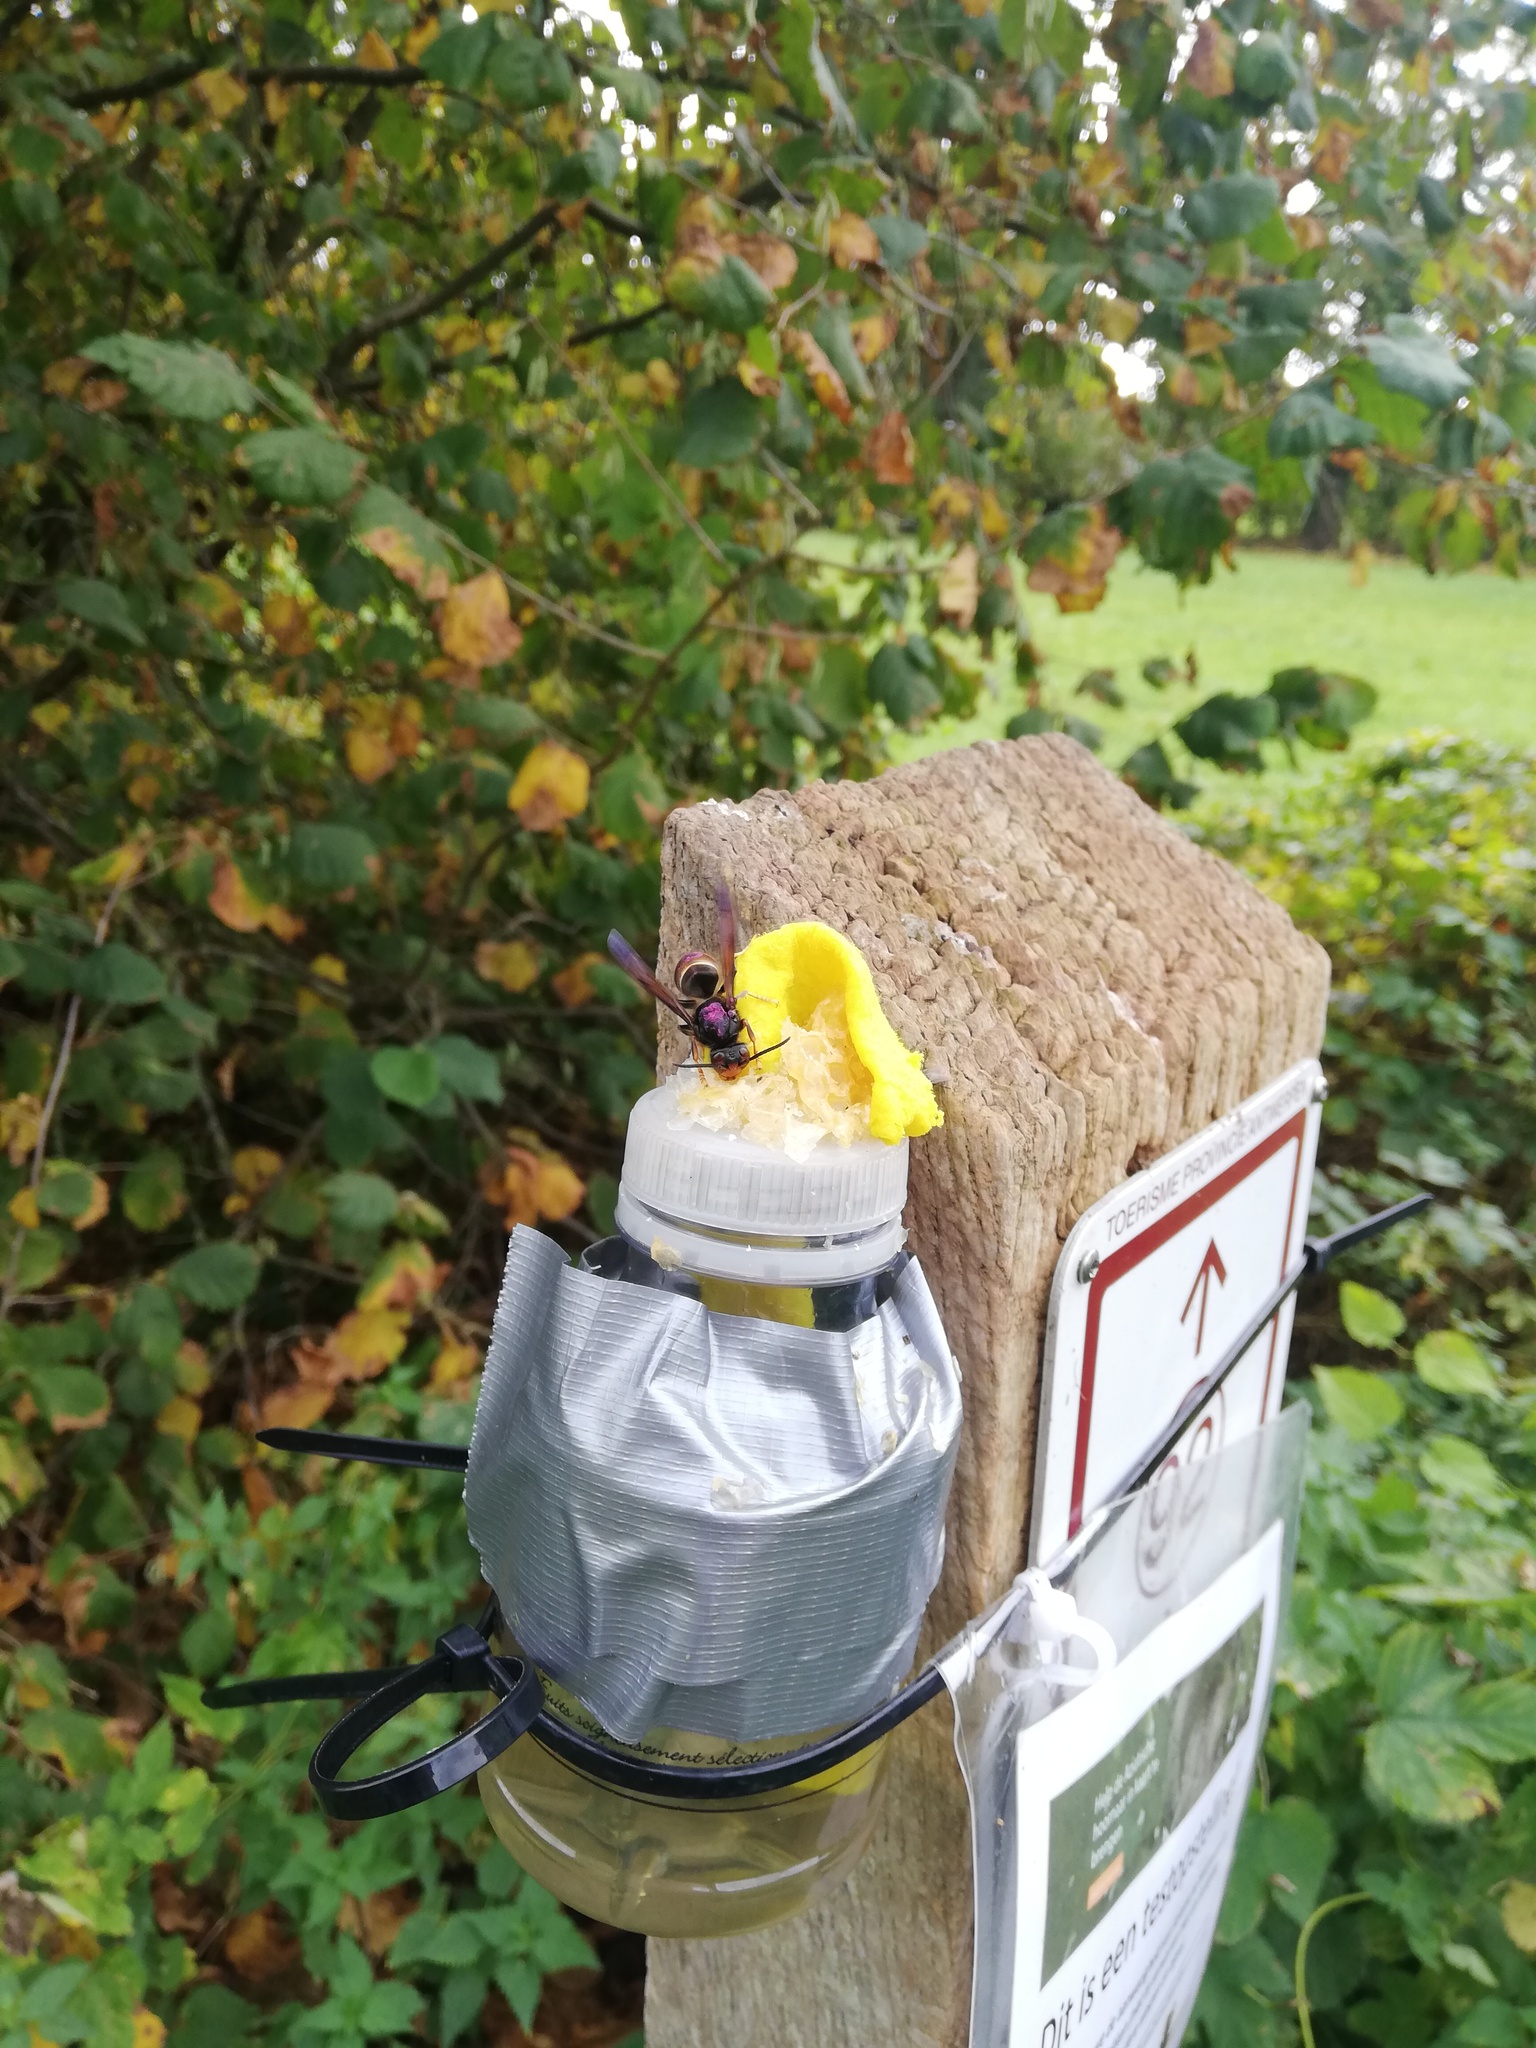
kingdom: Animalia
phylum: Arthropoda
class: Insecta
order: Hymenoptera
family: Vespidae
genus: Vespa
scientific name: Vespa velutina
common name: Asian hornet
